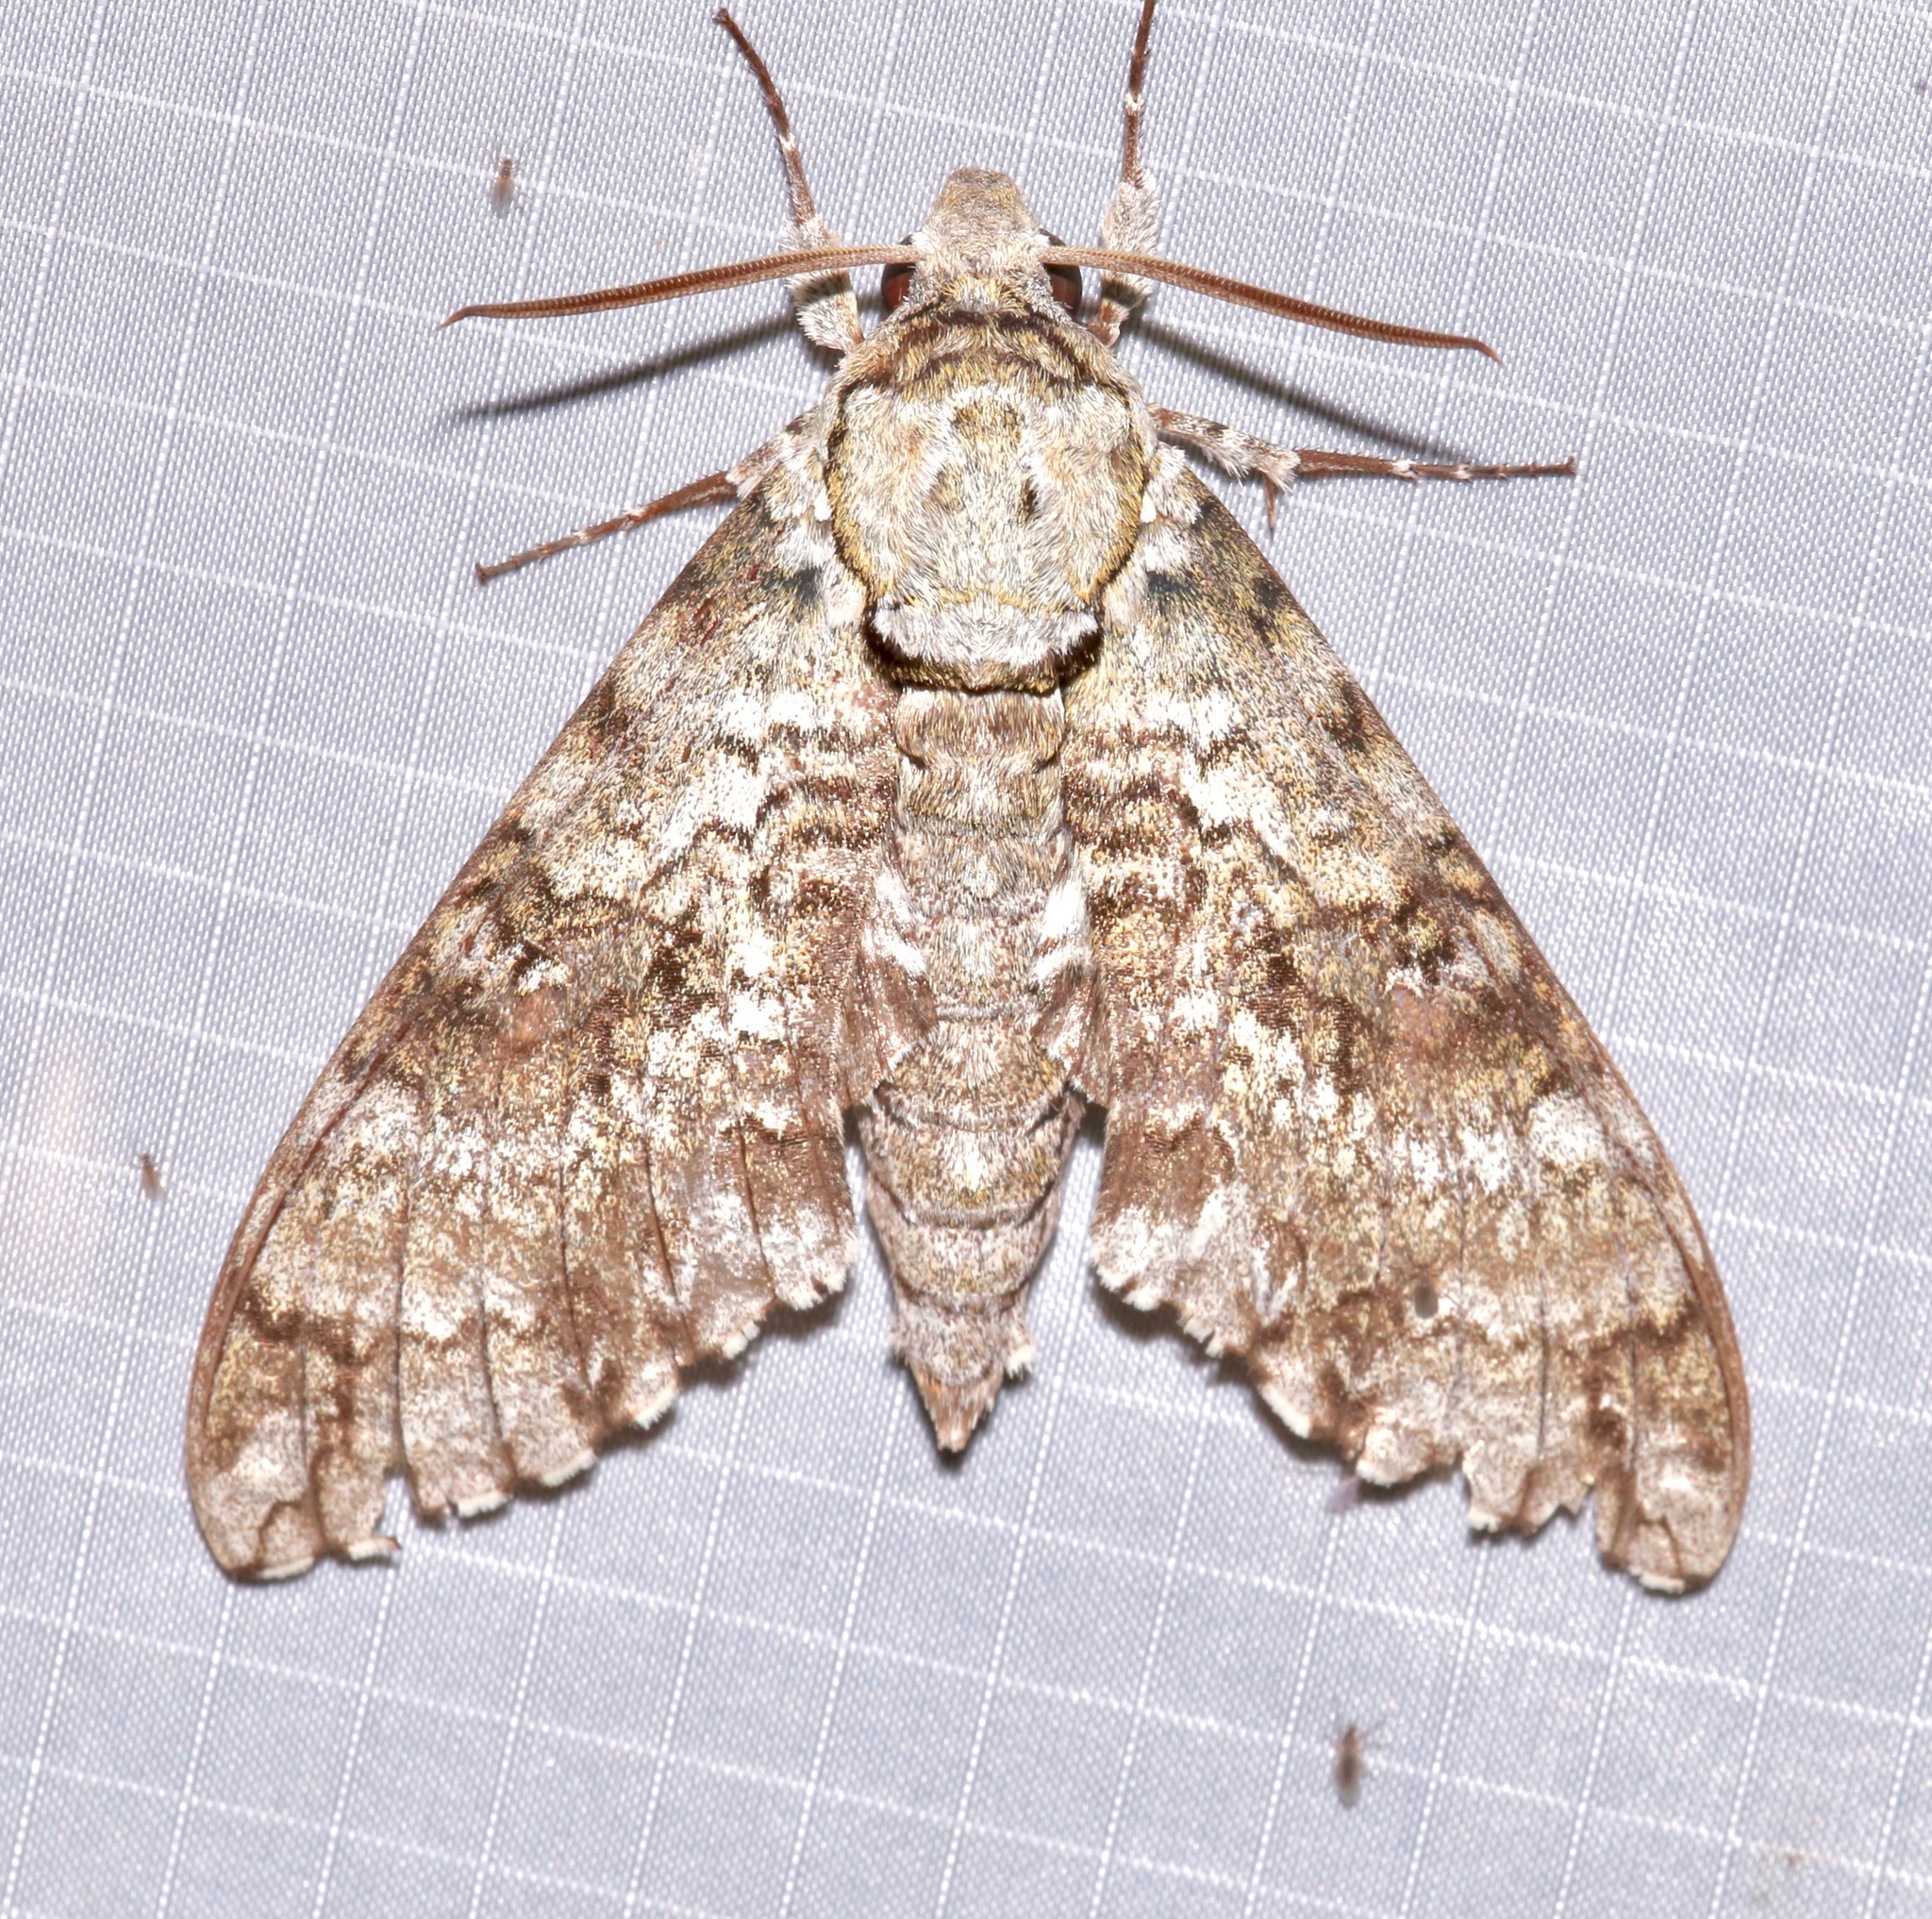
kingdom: Animalia
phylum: Arthropoda
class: Insecta
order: Lepidoptera
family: Sphingidae
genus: Manduca
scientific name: Manduca florestan
